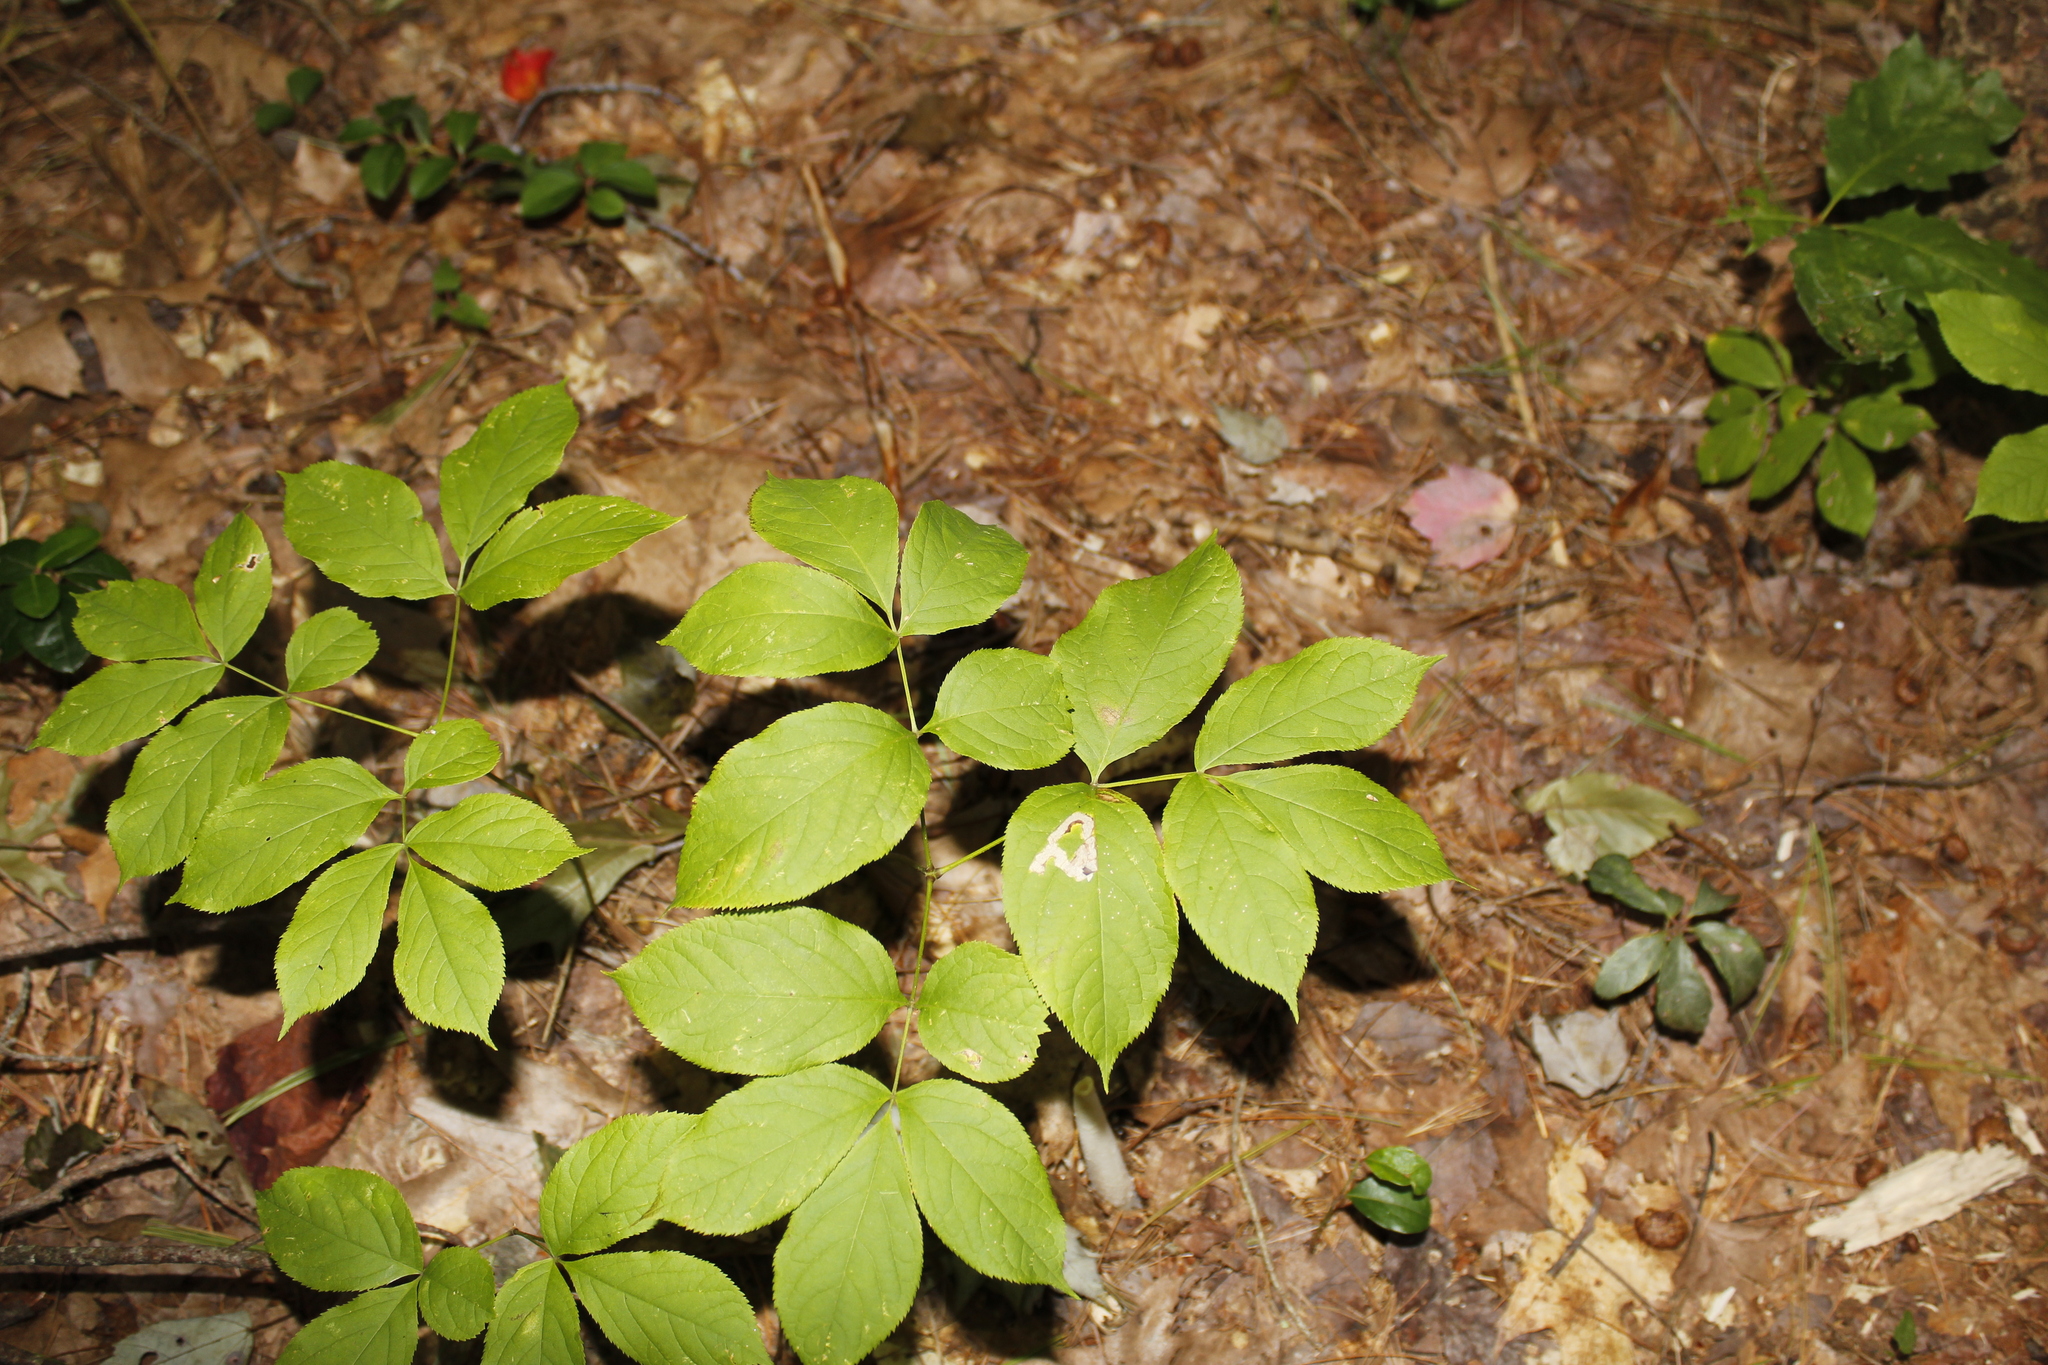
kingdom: Plantae
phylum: Tracheophyta
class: Magnoliopsida
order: Apiales
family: Araliaceae
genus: Aralia
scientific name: Aralia nudicaulis
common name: Wild sarsaparilla
